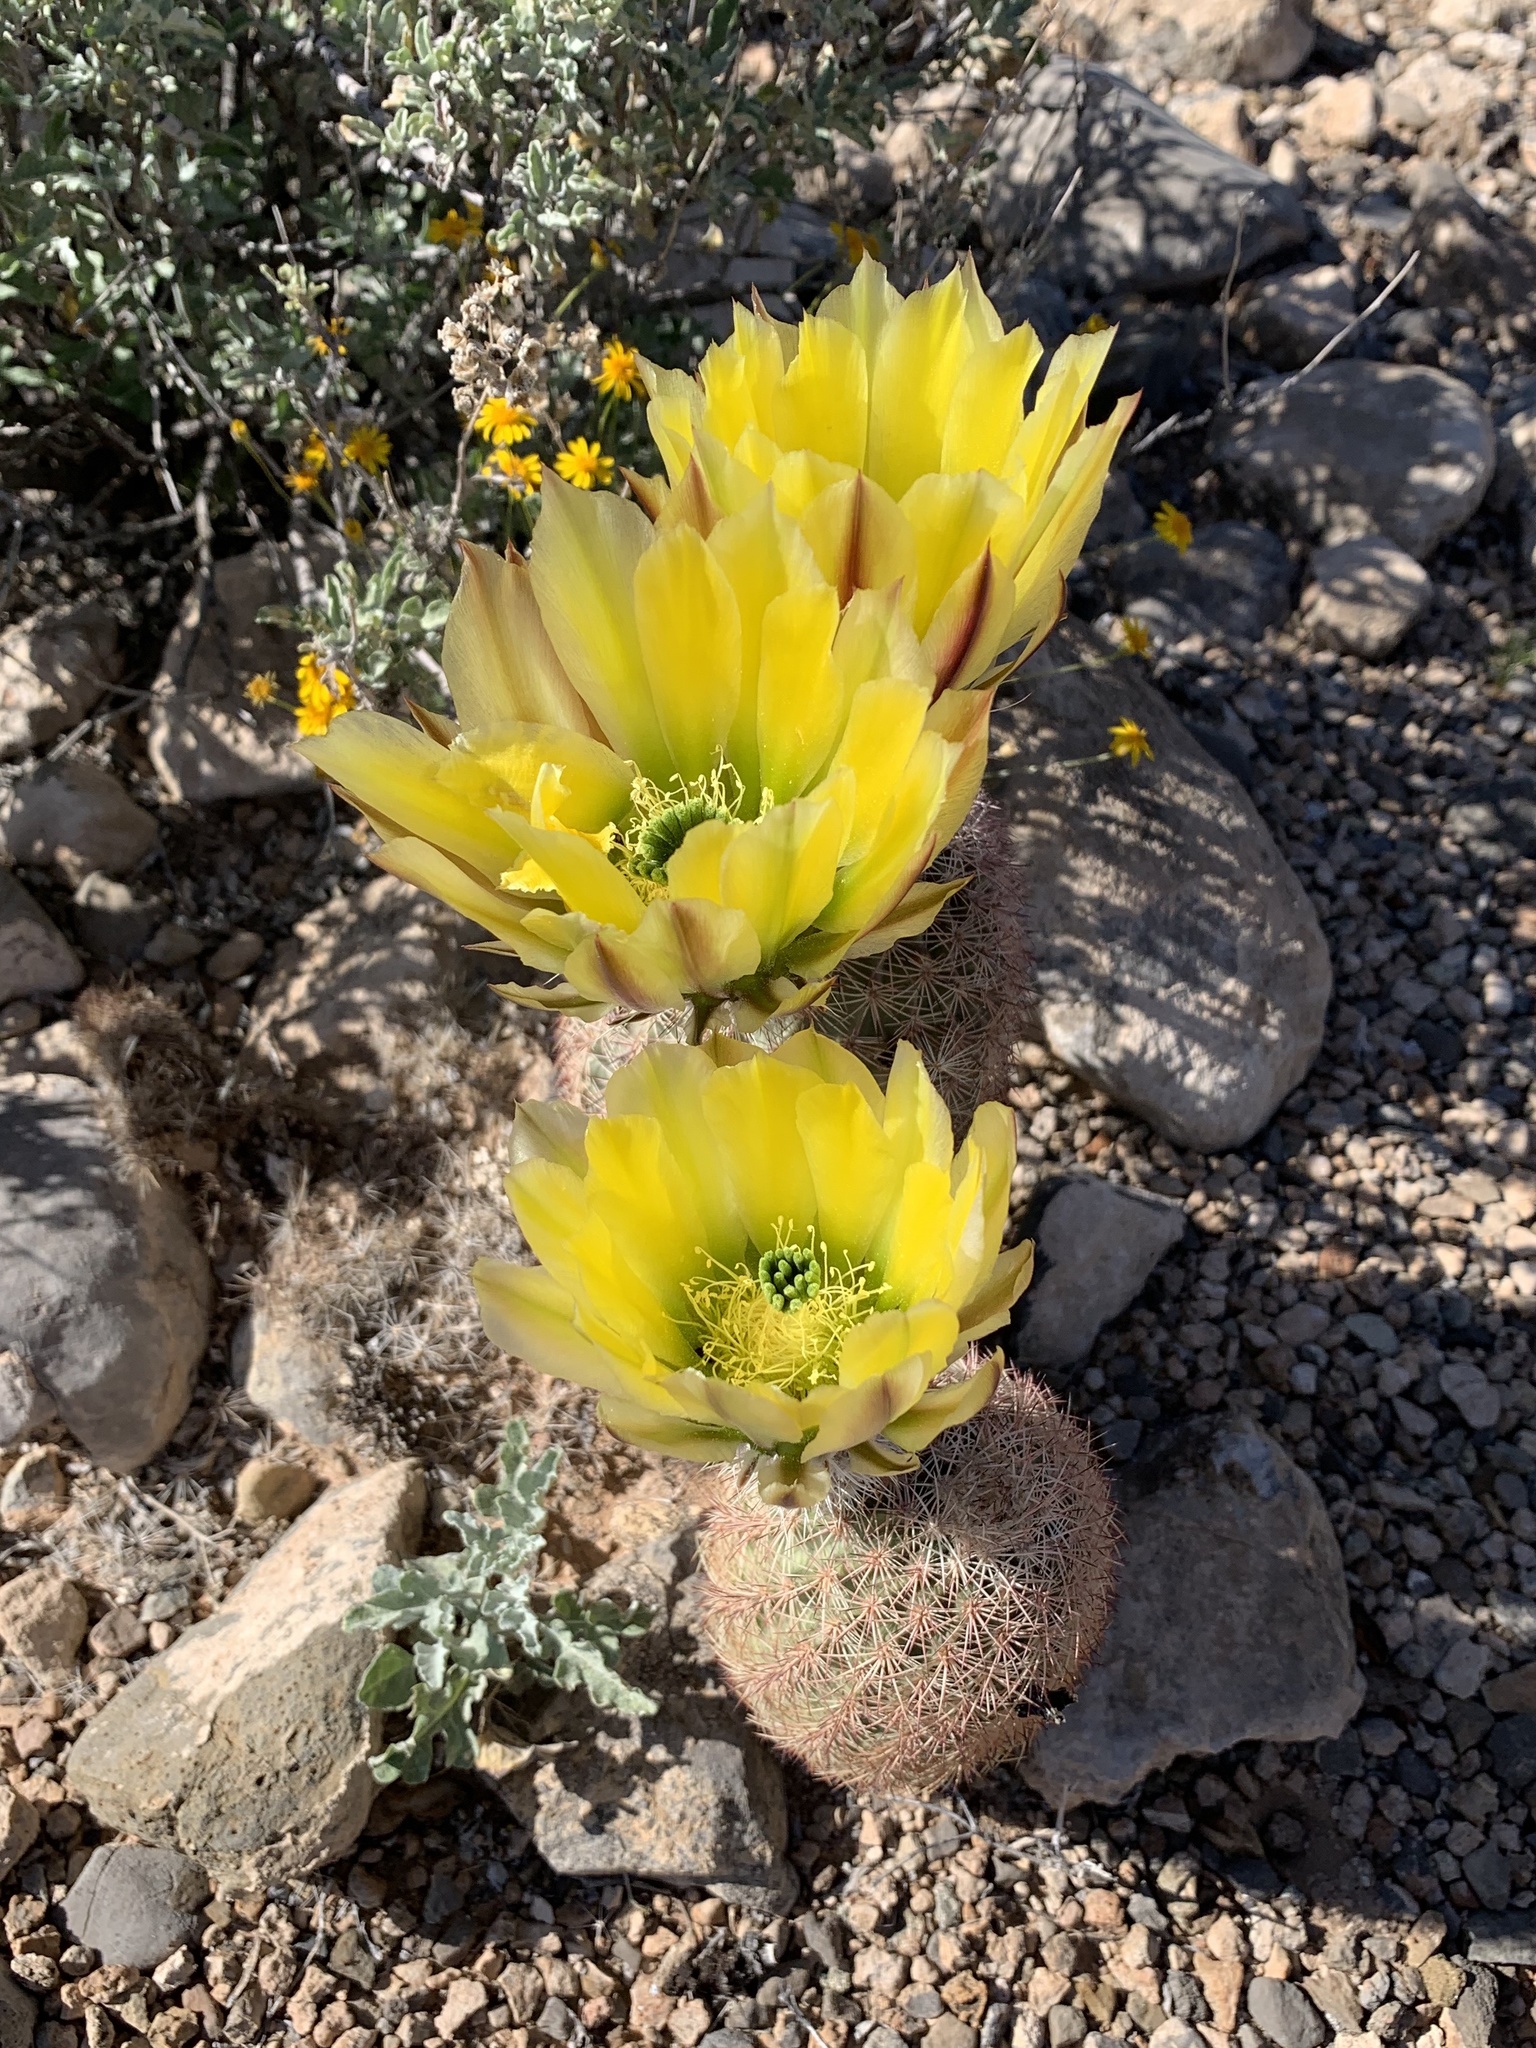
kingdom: Plantae
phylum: Tracheophyta
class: Magnoliopsida
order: Caryophyllales
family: Cactaceae
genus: Echinocereus
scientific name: Echinocereus dasyacanthus
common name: Spiny hedgehog cactus
